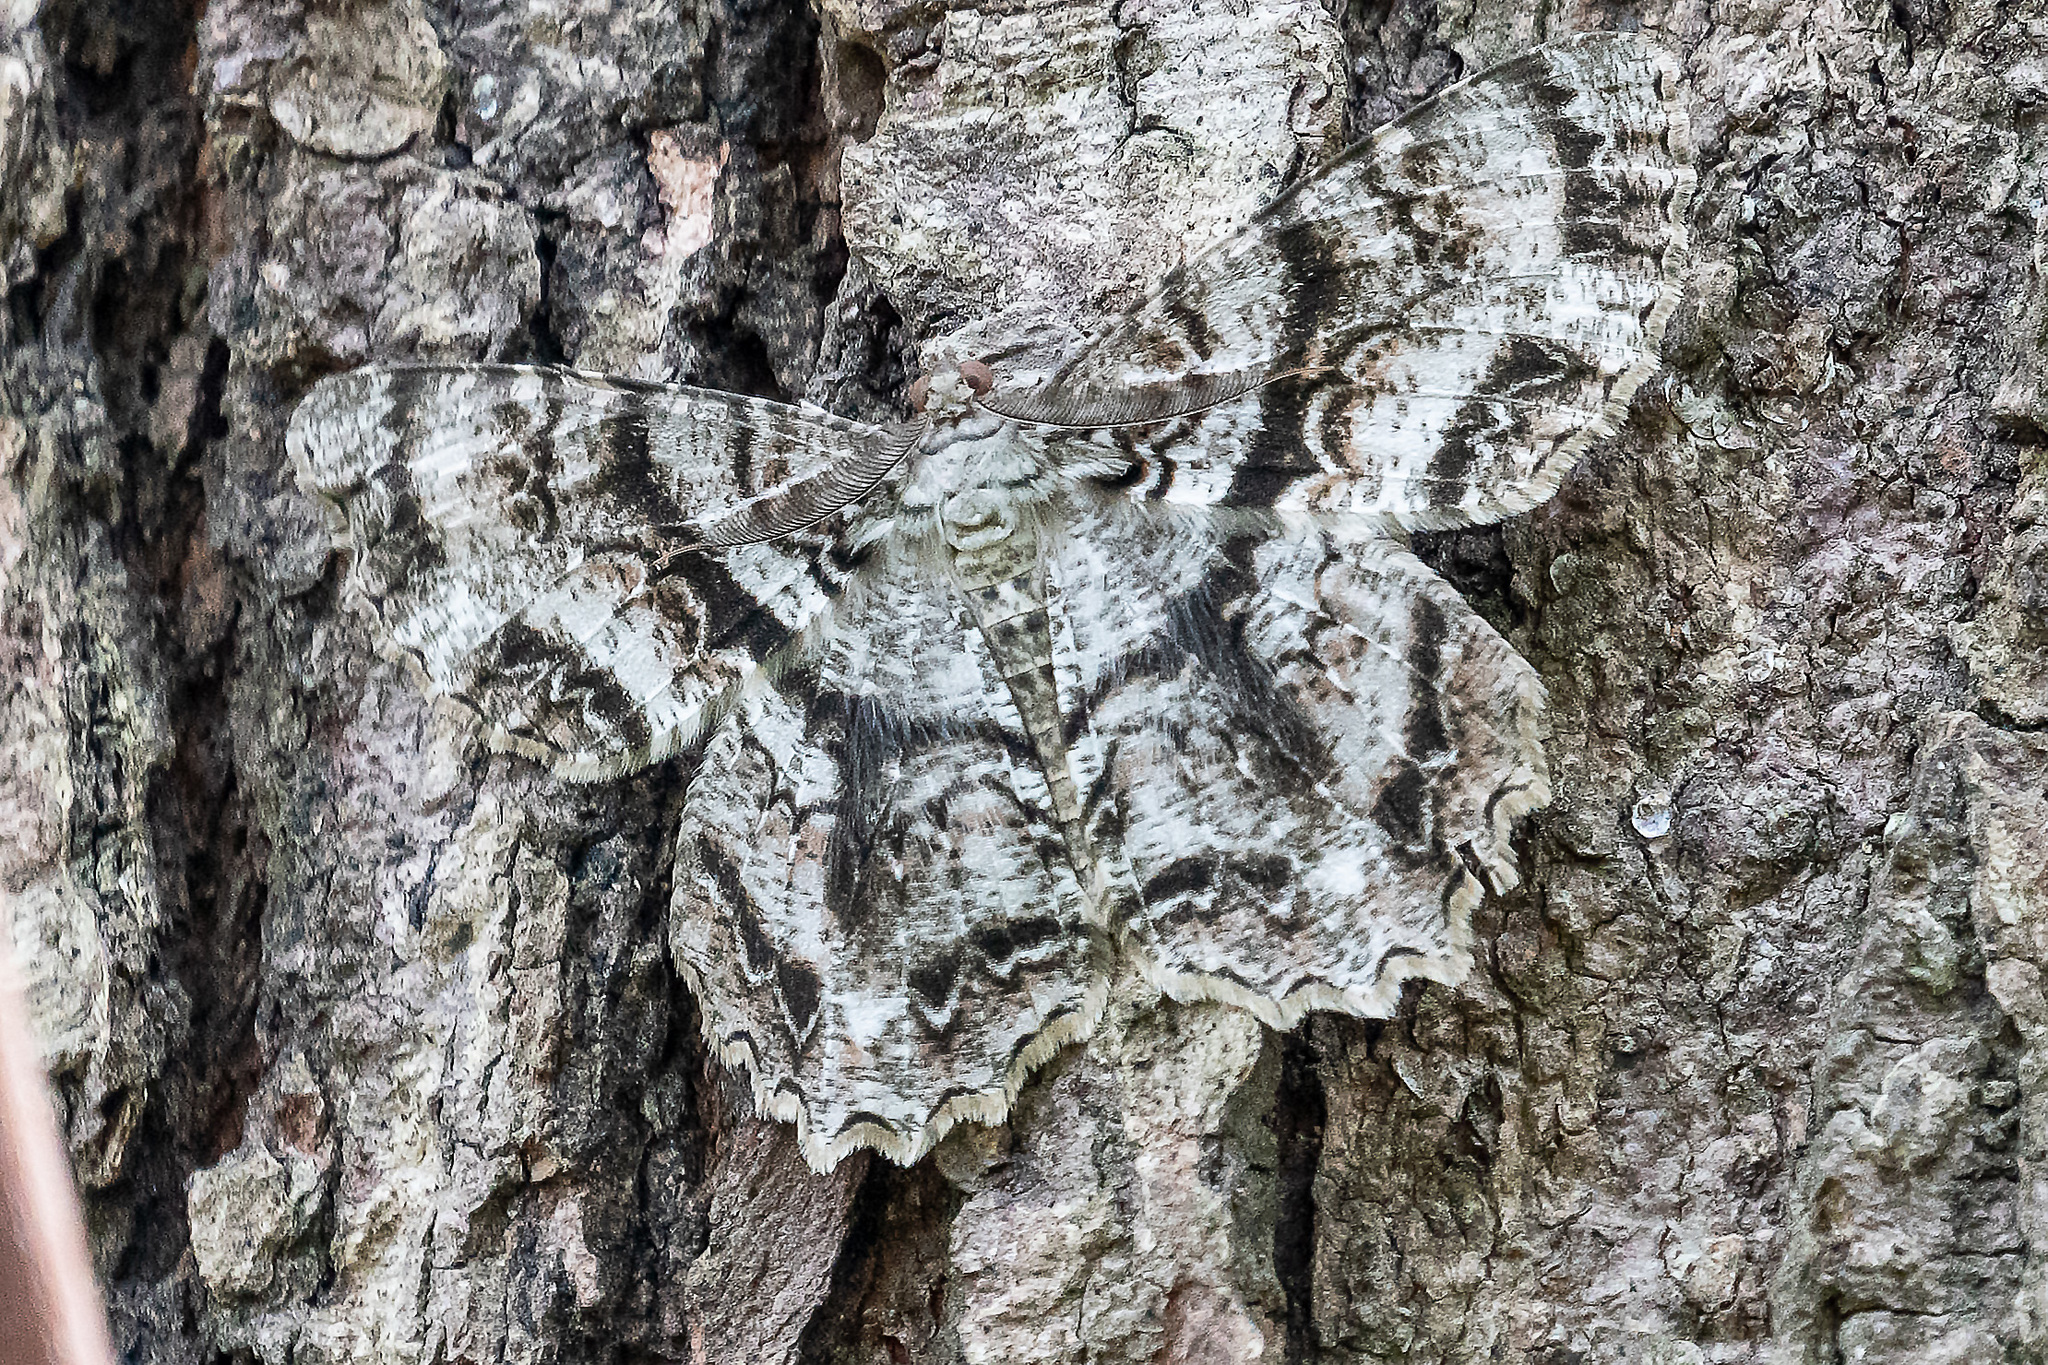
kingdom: Animalia
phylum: Arthropoda
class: Insecta
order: Lepidoptera
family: Geometridae
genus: Epimecis
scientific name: Epimecis hortaria
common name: Tulip-tree beauty
